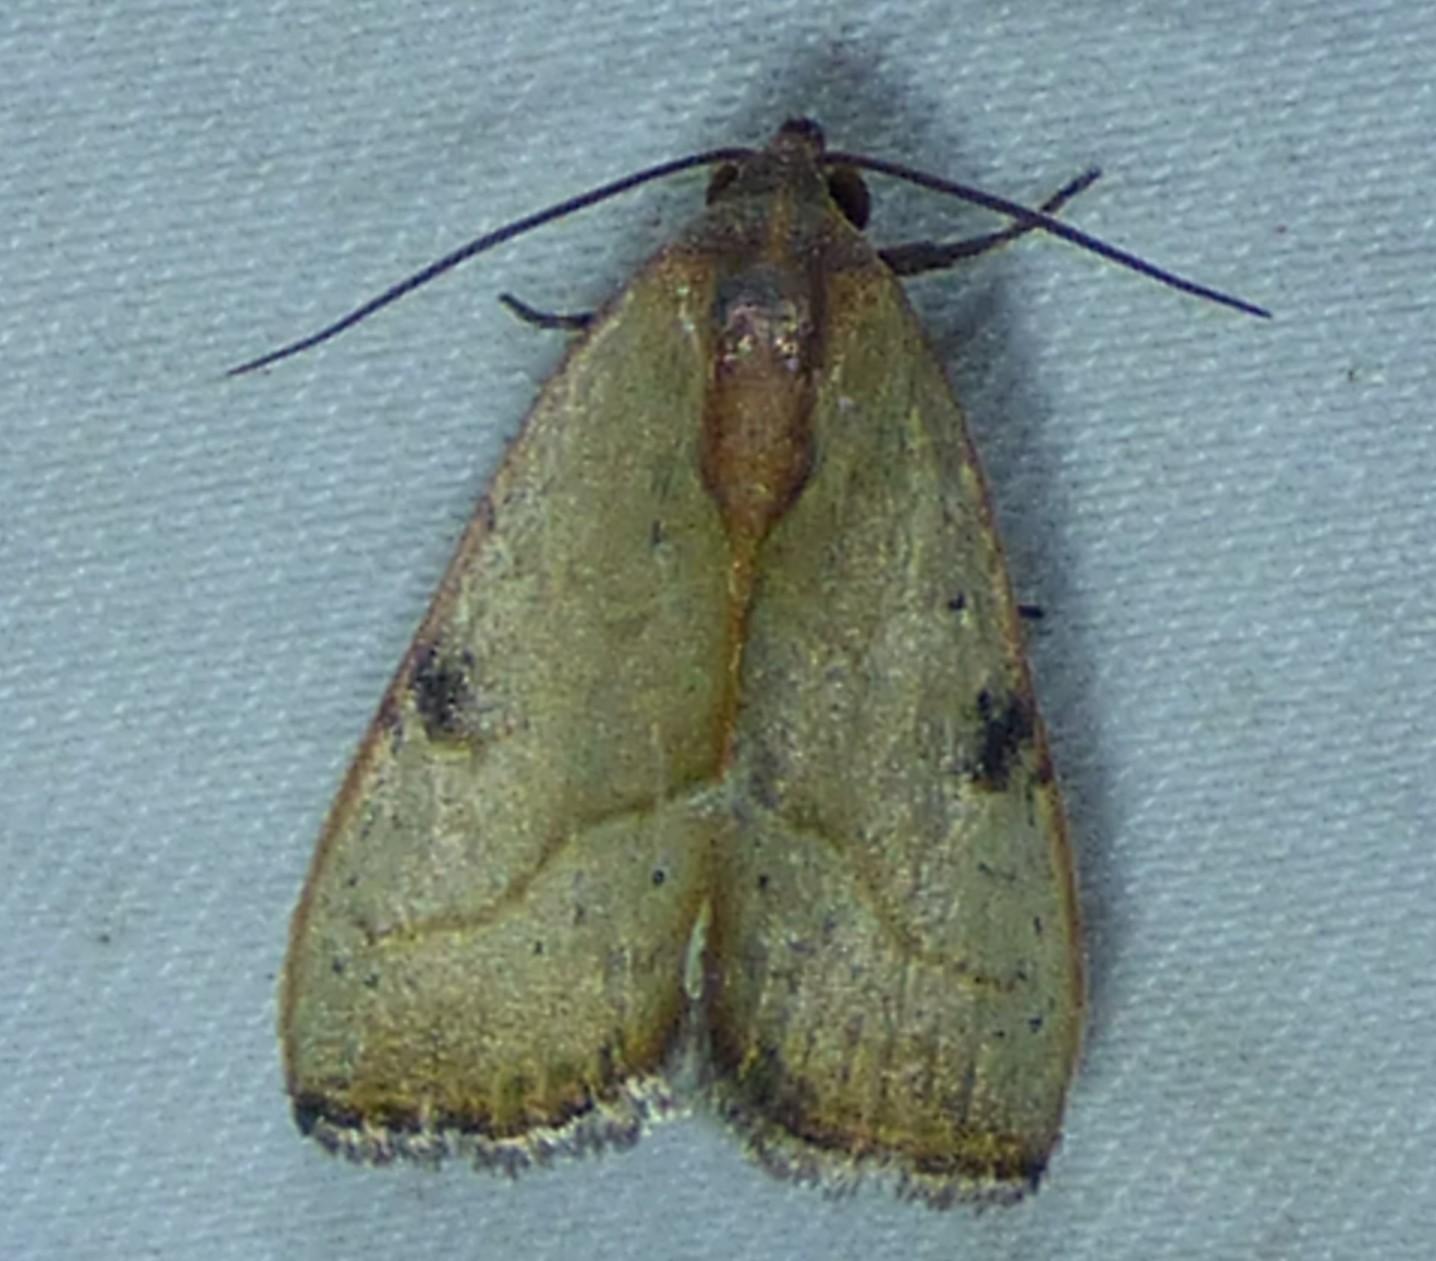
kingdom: Animalia
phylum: Arthropoda
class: Insecta
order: Lepidoptera
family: Noctuidae
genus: Galgula
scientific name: Galgula partita
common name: Wedgeling
